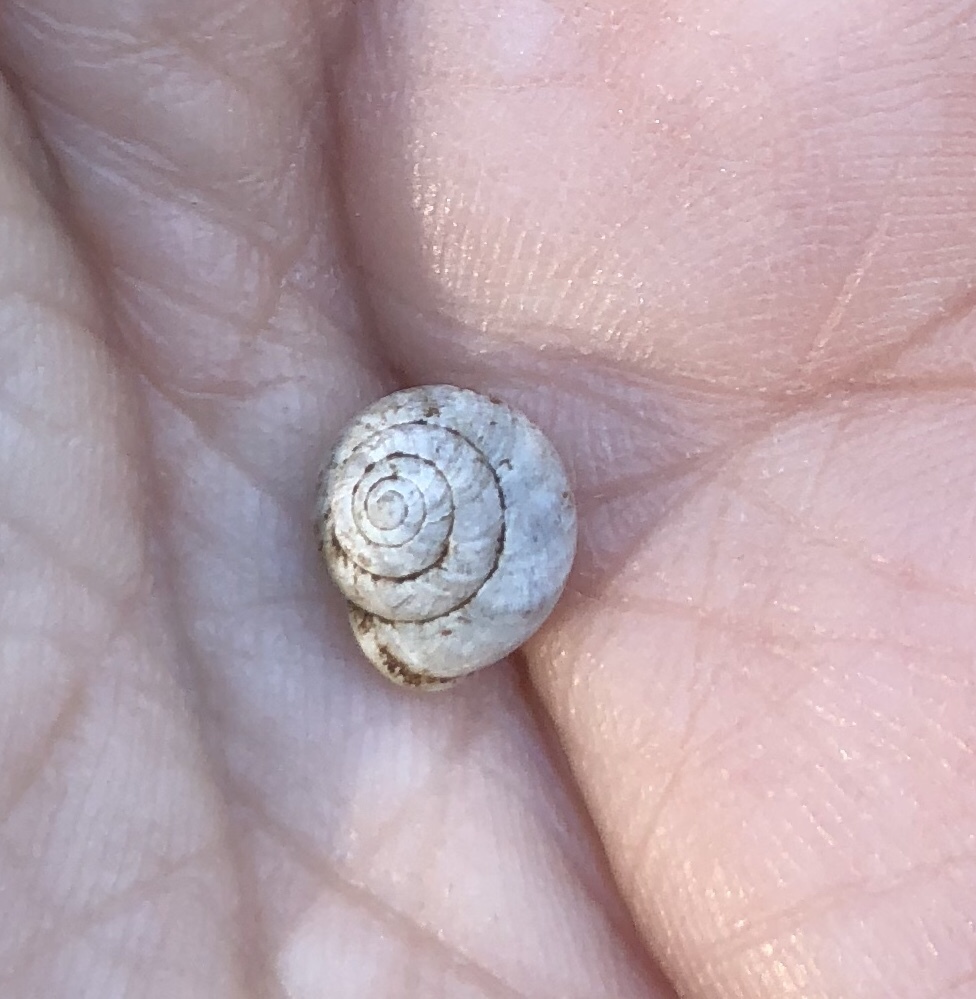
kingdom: Animalia
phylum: Mollusca
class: Gastropoda
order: Cycloneritida
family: Helicinidae
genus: Helicina
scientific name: Helicina orbiculata
